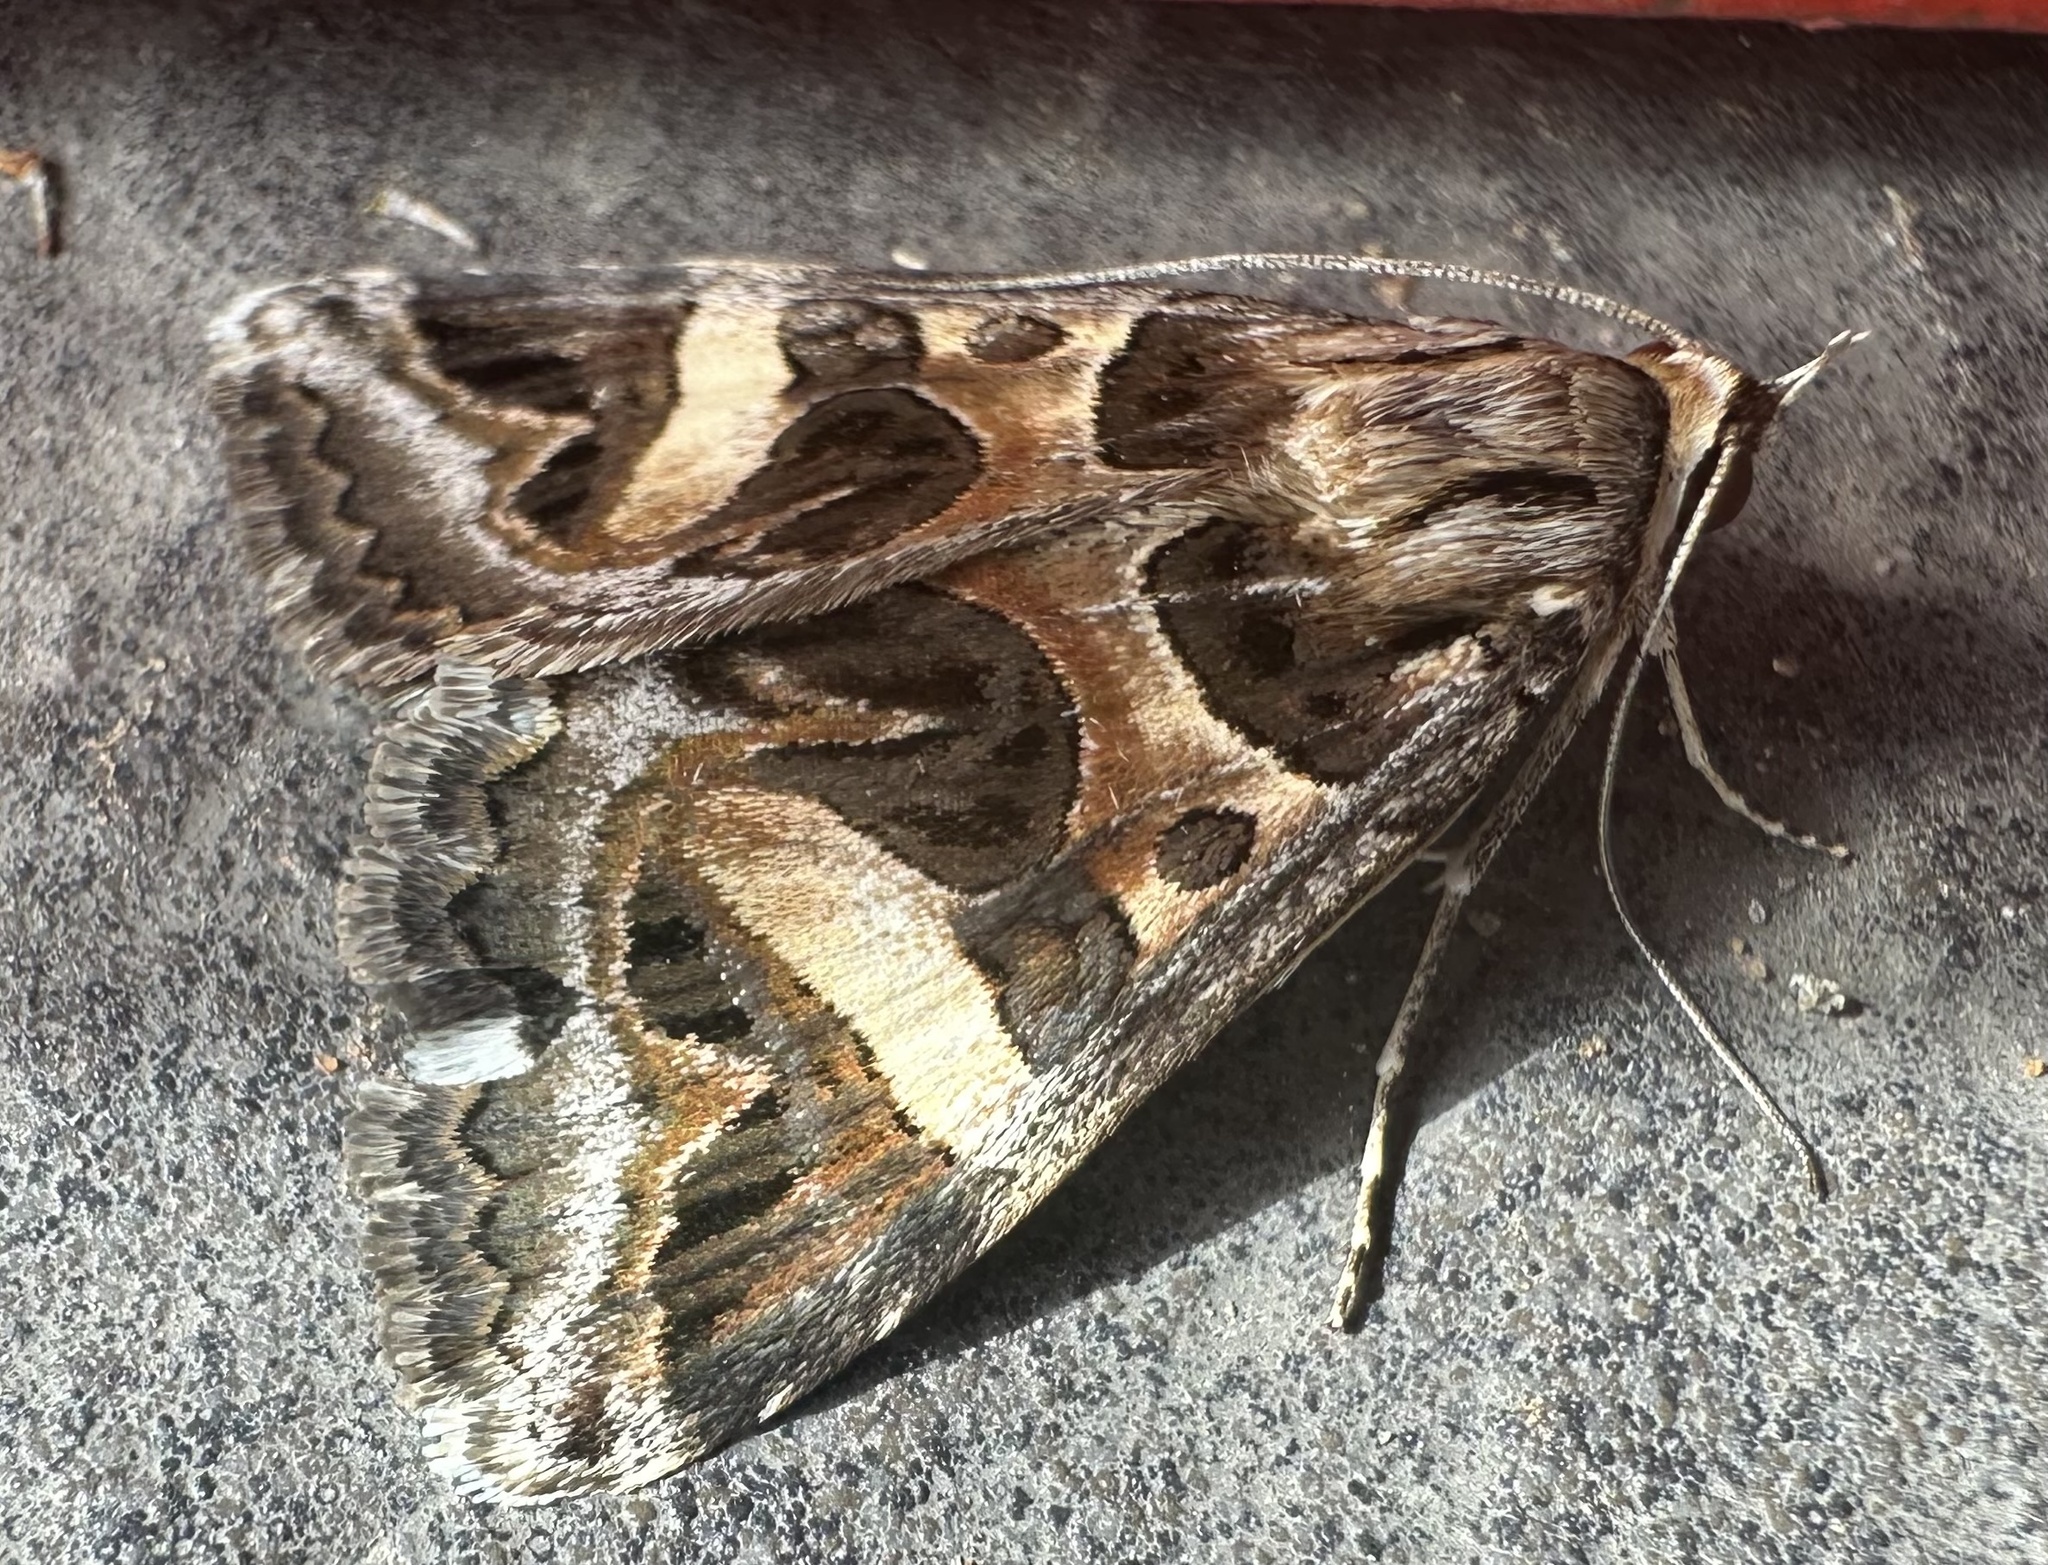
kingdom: Animalia
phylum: Arthropoda
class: Insecta
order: Lepidoptera
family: Erebidae
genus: Cerocala
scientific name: Cerocala vermiculosa
